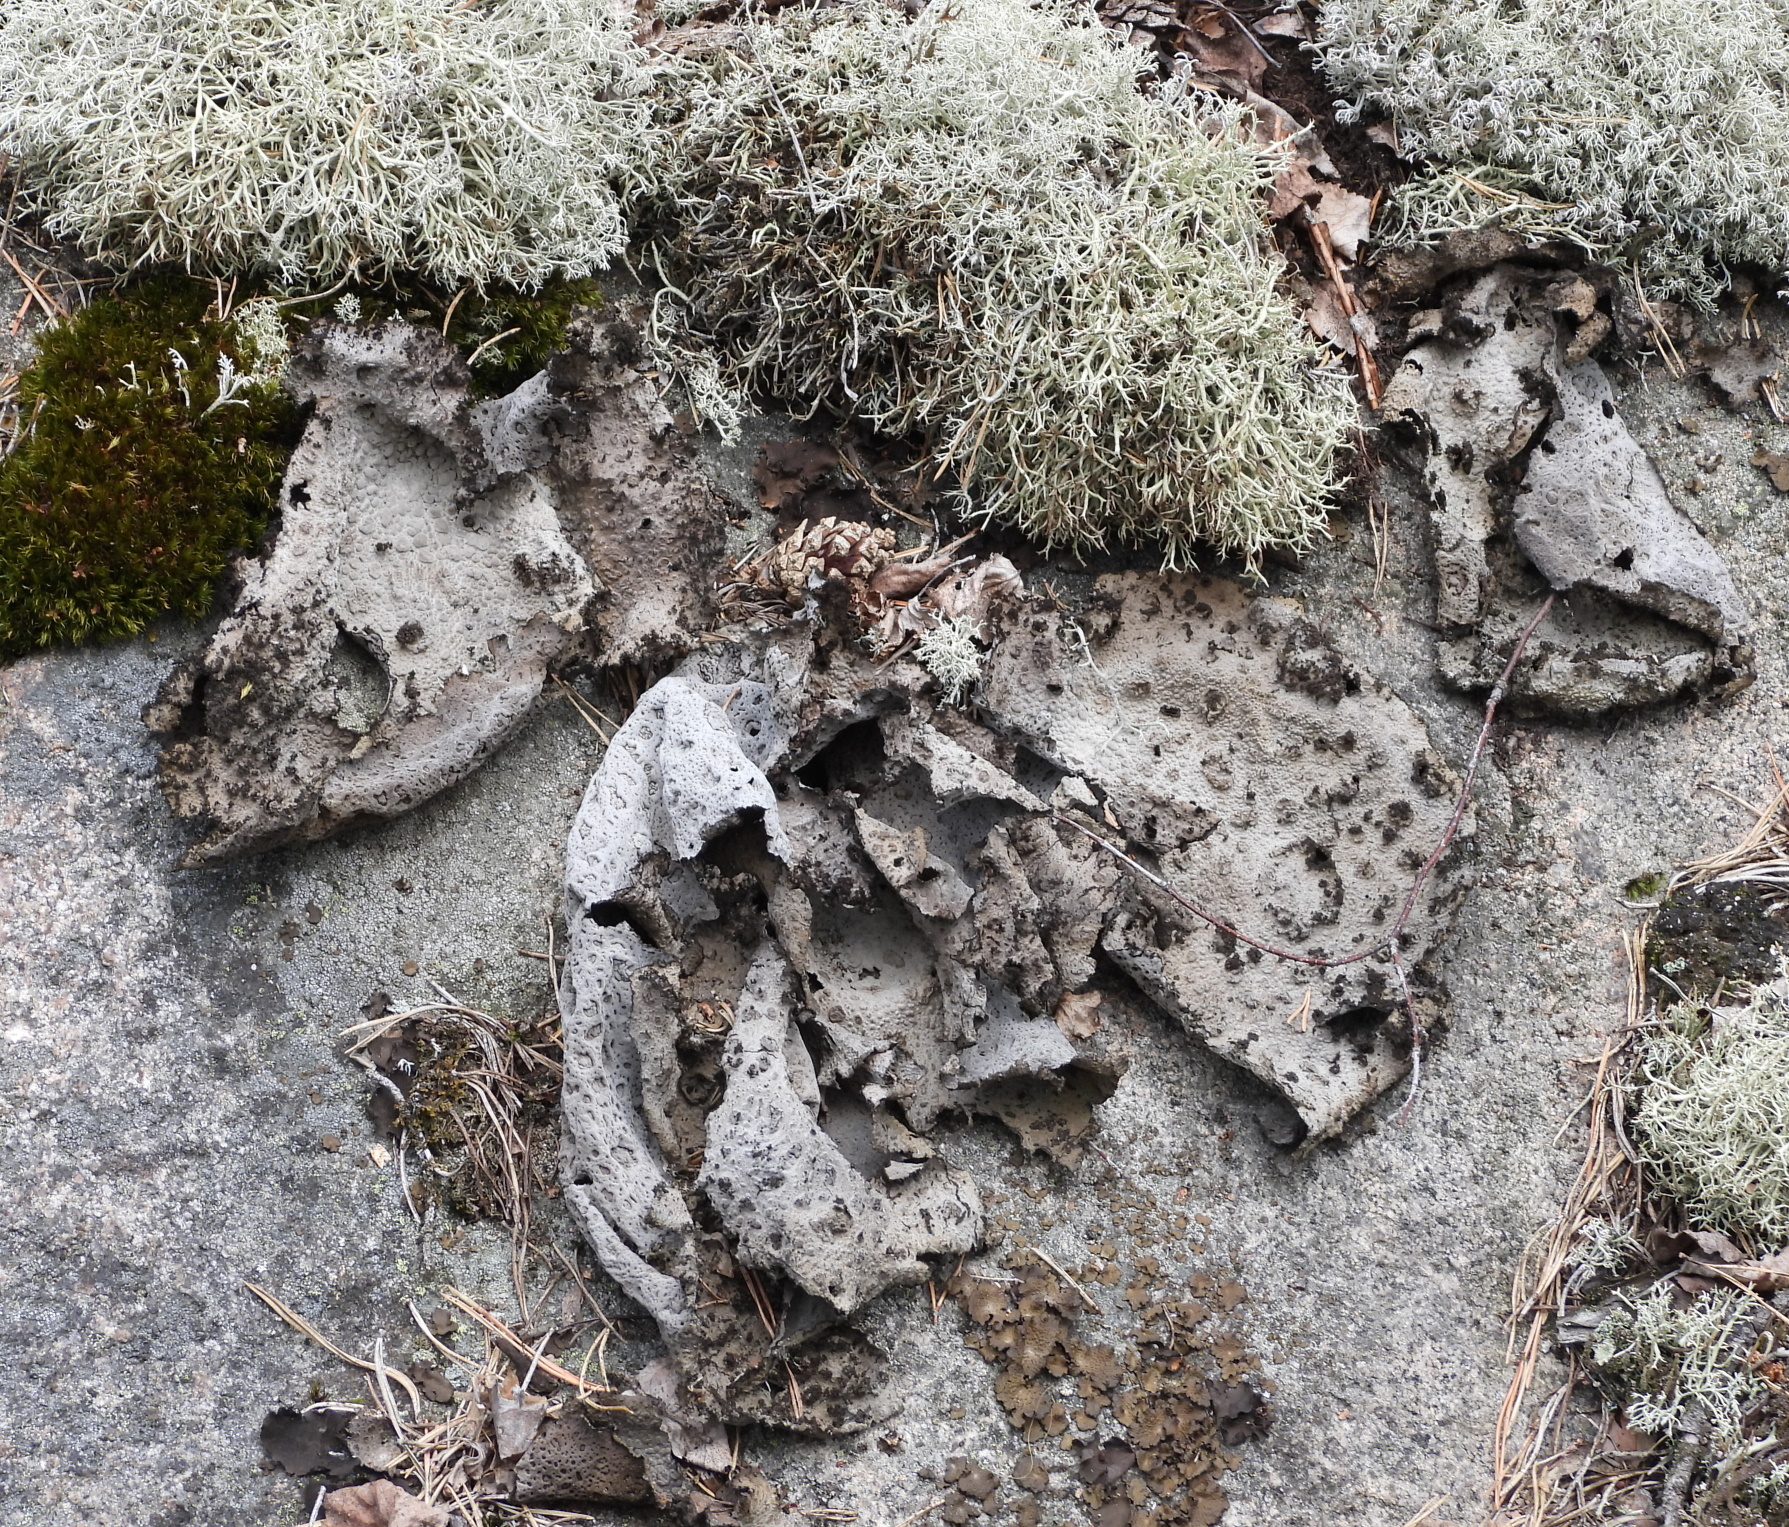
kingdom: Fungi
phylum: Ascomycota
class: Lecanoromycetes
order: Umbilicariales
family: Umbilicariaceae
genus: Lasallia
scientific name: Lasallia pustulata
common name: Blistered toadskin lichen
